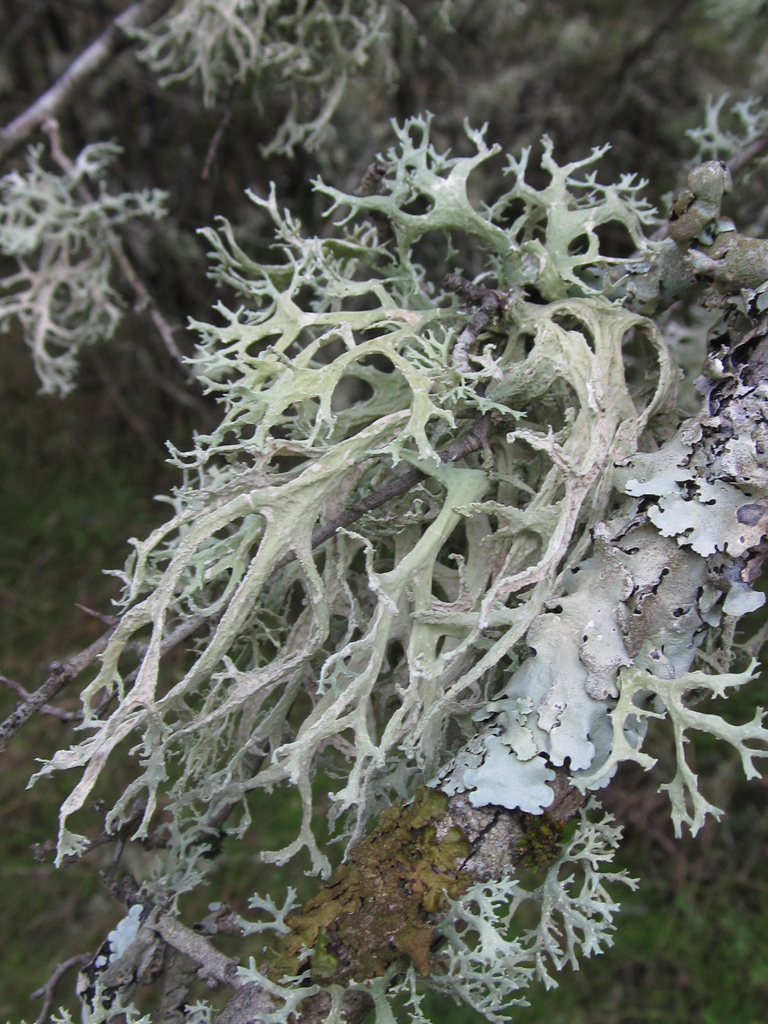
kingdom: Fungi
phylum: Ascomycota
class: Lecanoromycetes
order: Lecanorales
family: Parmeliaceae
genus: Evernia
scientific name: Evernia prunastri
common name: Oak moss
